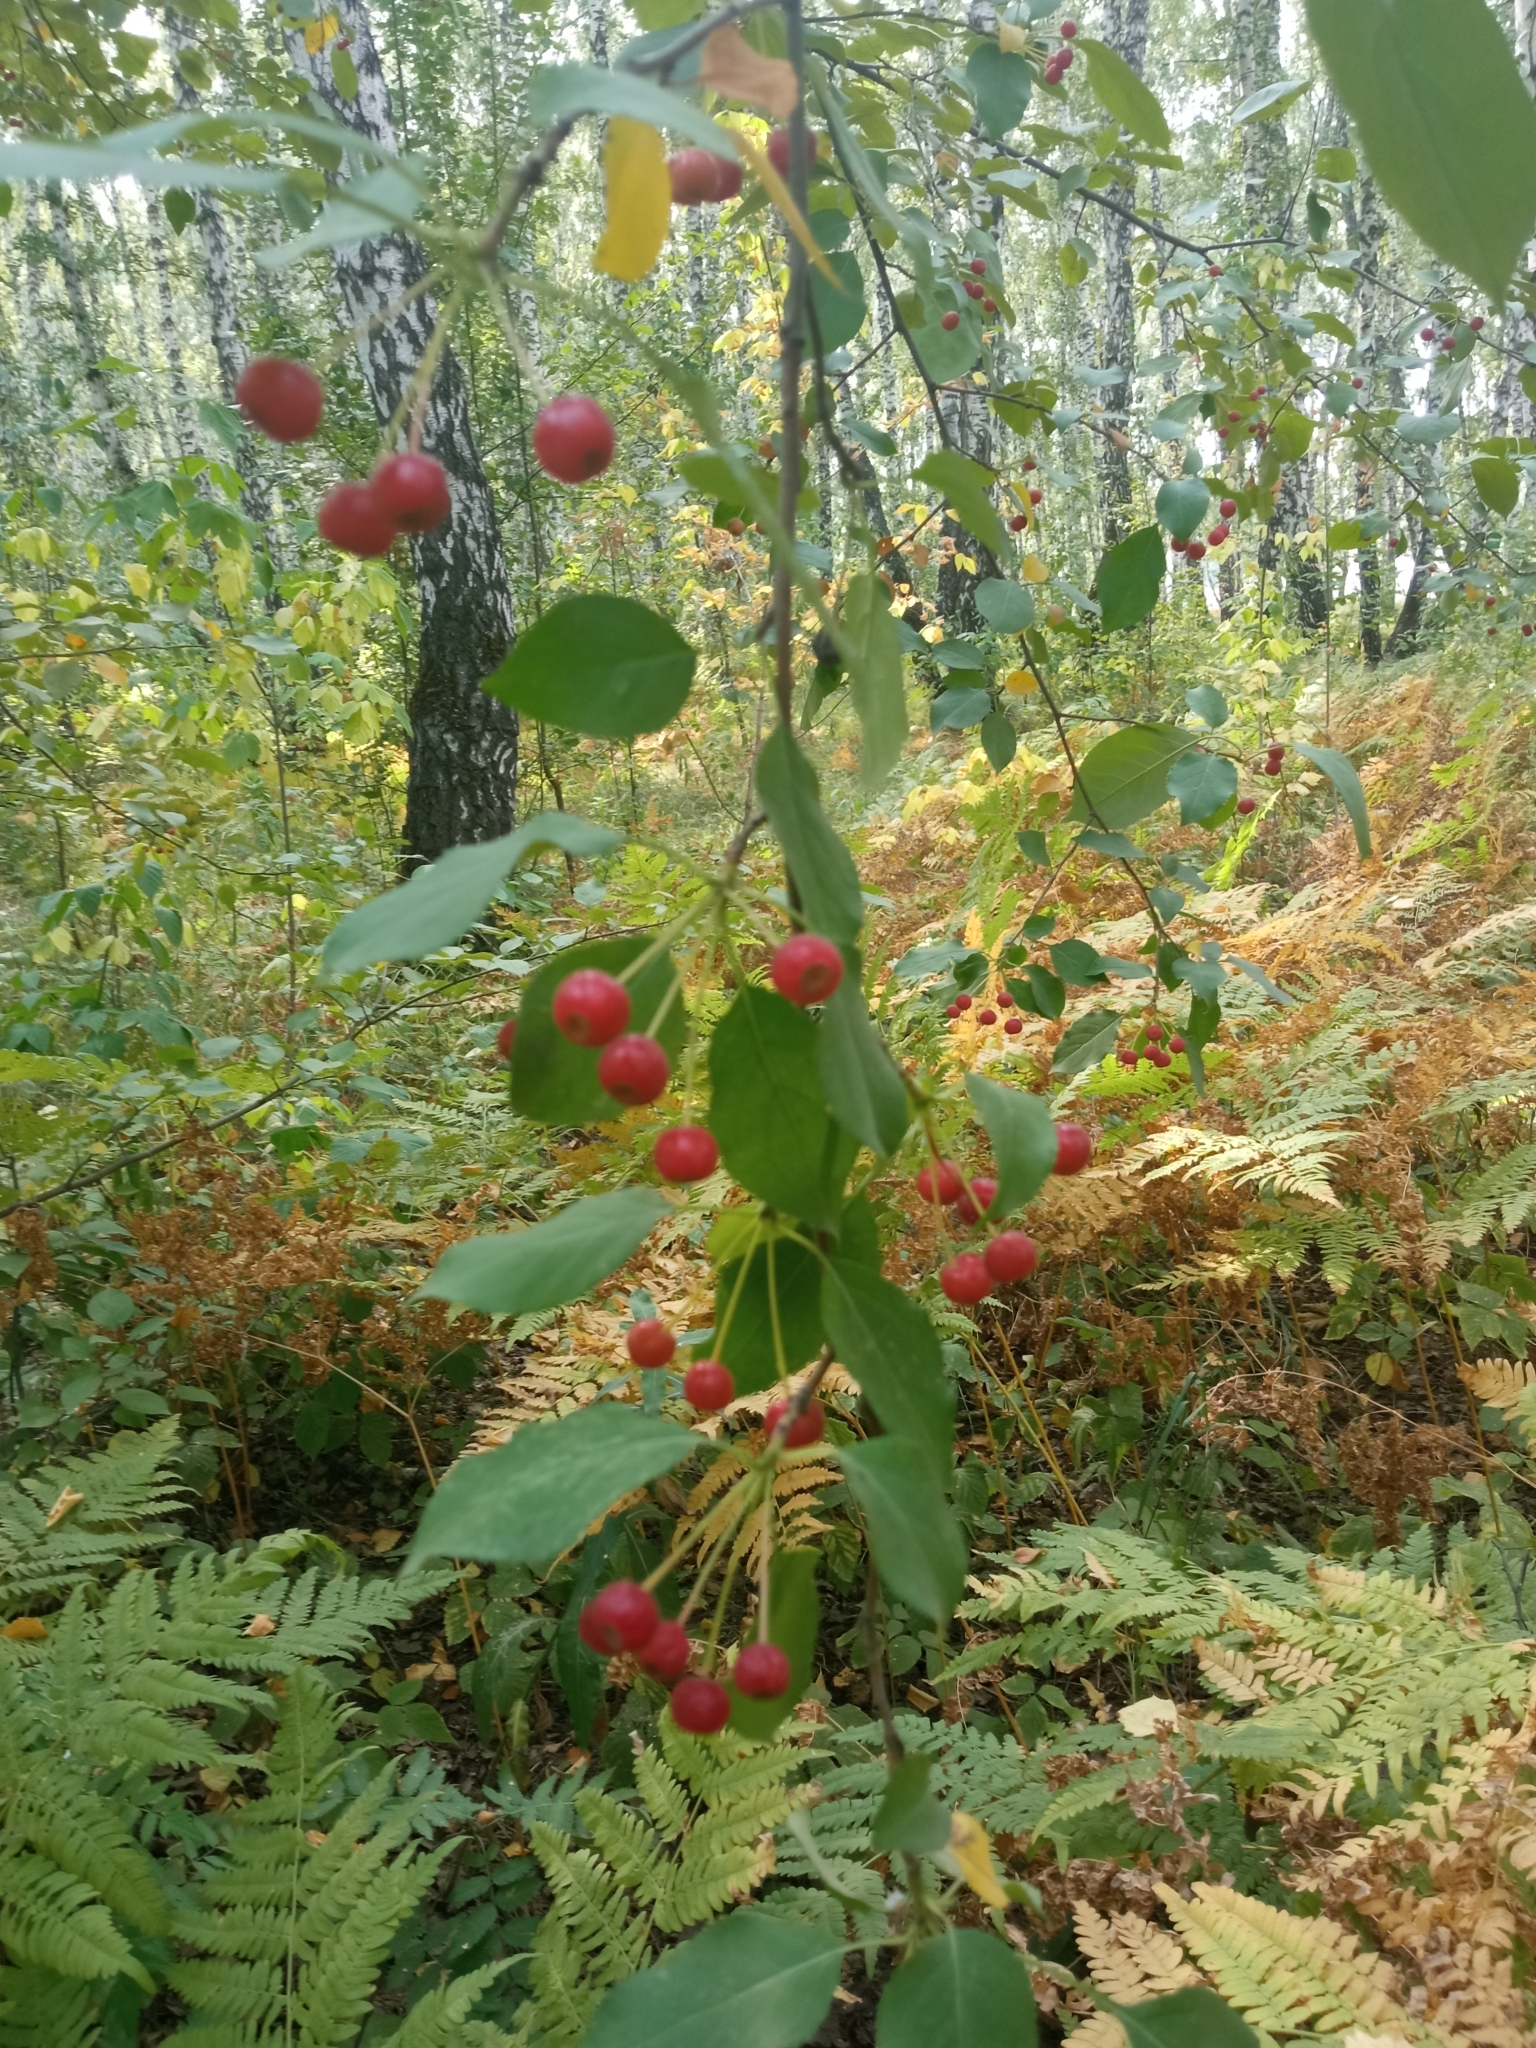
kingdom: Plantae
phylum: Tracheophyta
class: Magnoliopsida
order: Rosales
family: Rosaceae
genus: Malus
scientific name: Malus baccata
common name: Siberian crab
